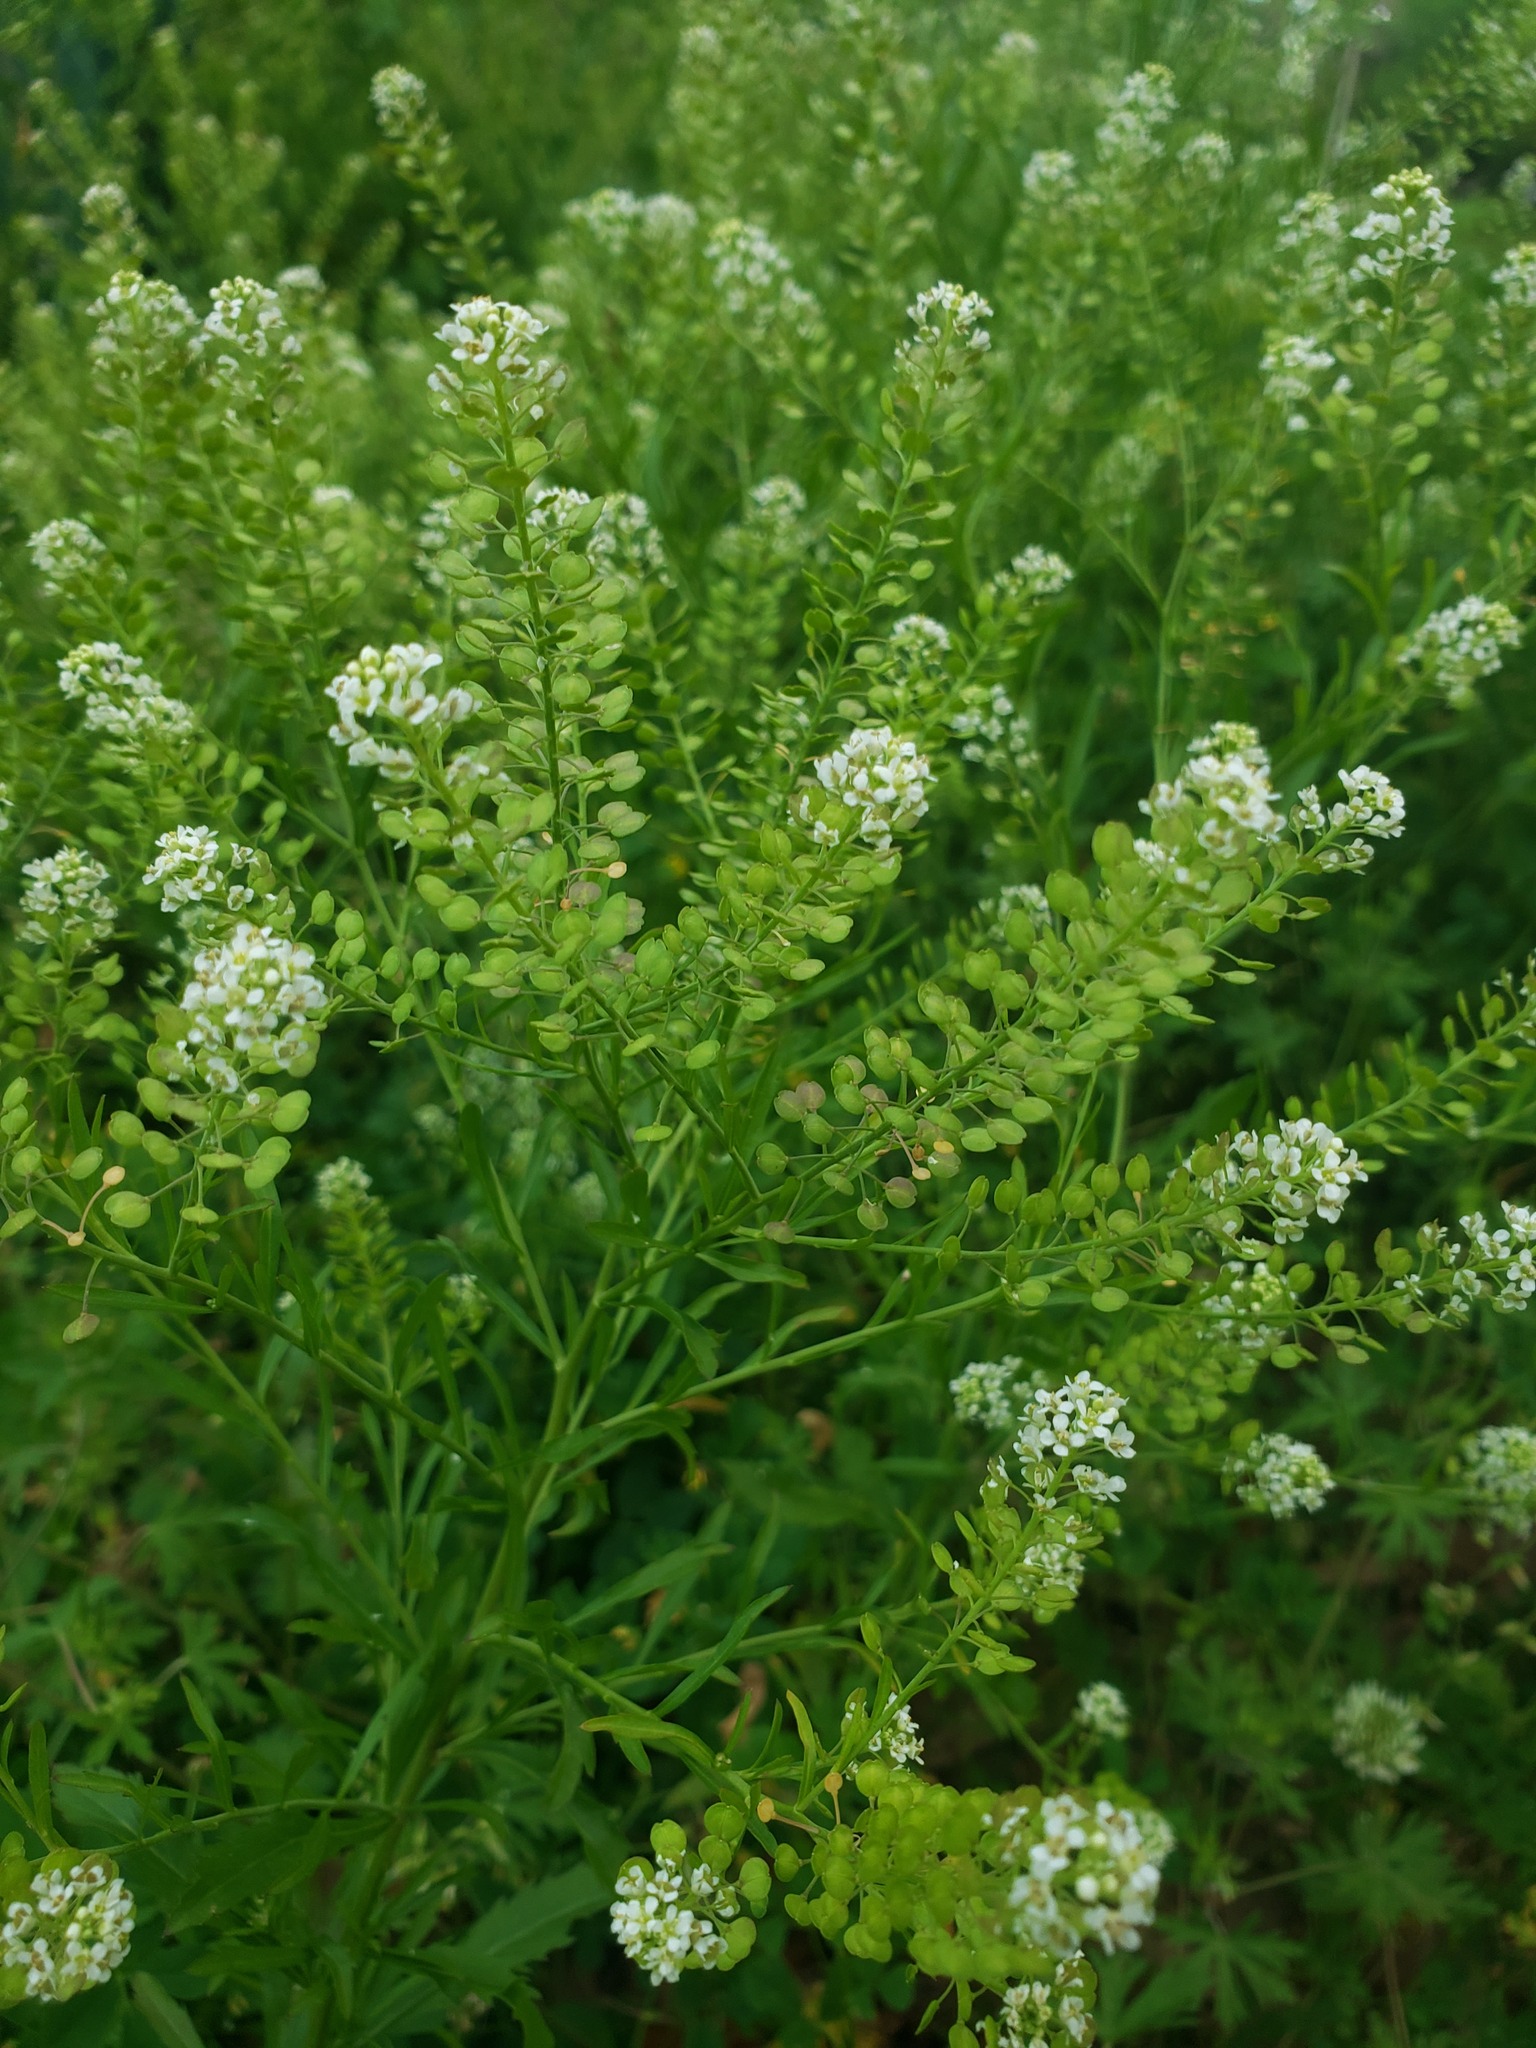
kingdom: Plantae
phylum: Tracheophyta
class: Magnoliopsida
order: Brassicales
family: Brassicaceae
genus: Lepidium
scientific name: Lepidium virginicum
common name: Least pepperwort
